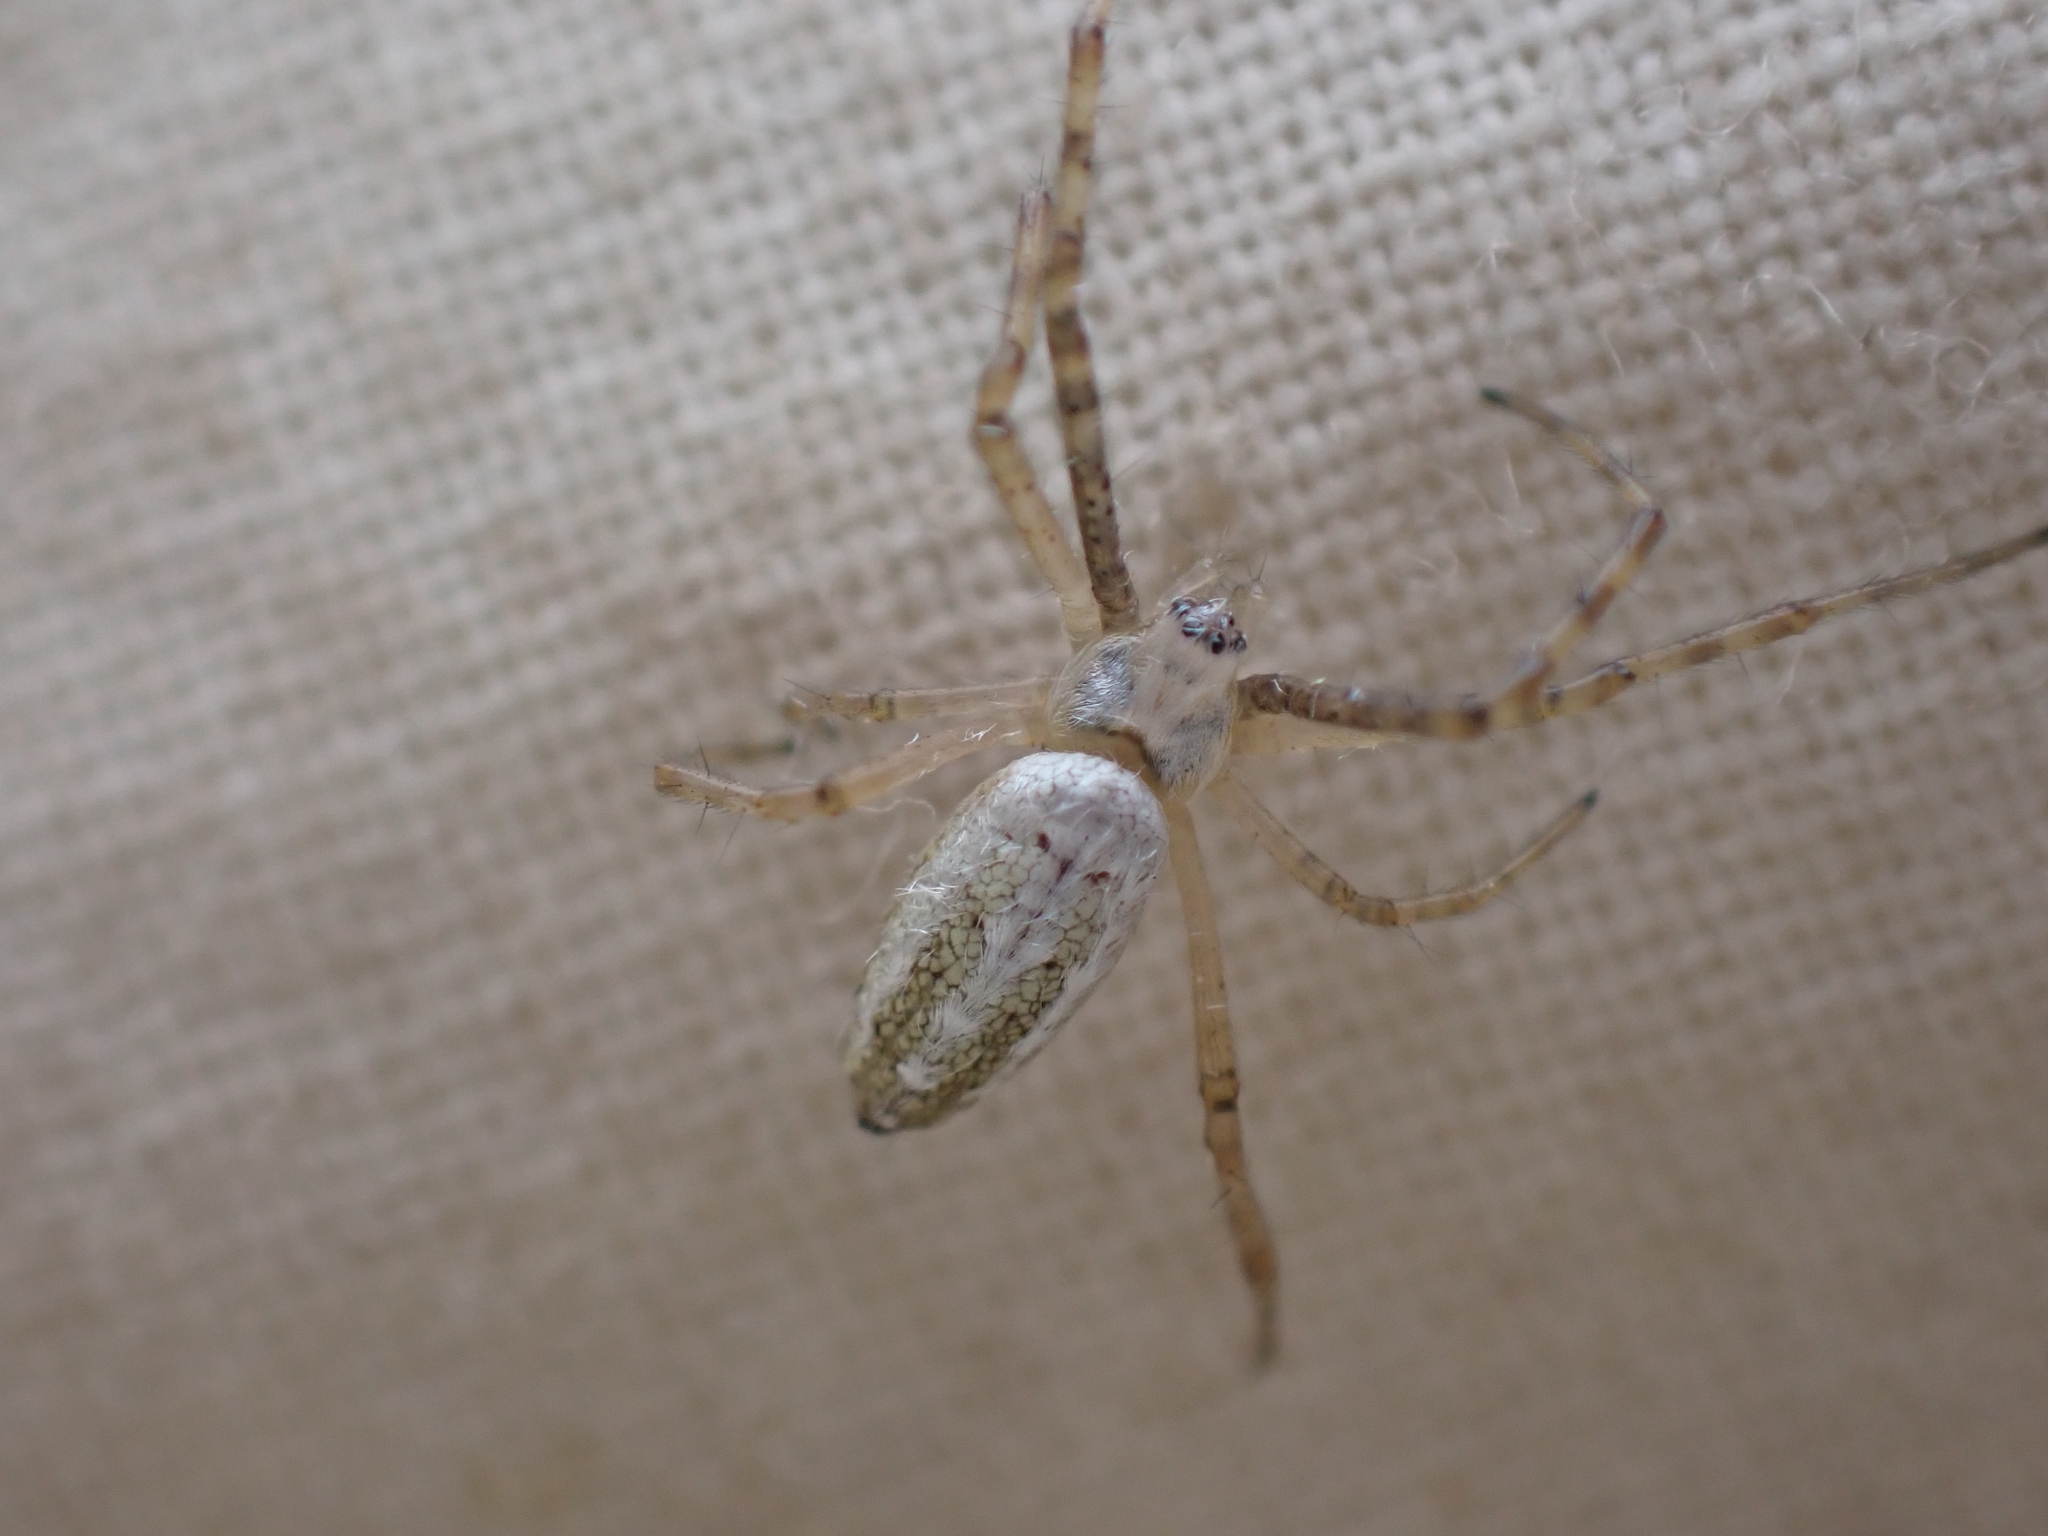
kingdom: Animalia
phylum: Arthropoda
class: Arachnida
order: Araneae
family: Araneidae
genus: Argiope
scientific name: Argiope trifasciata
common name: Banded garden spider
